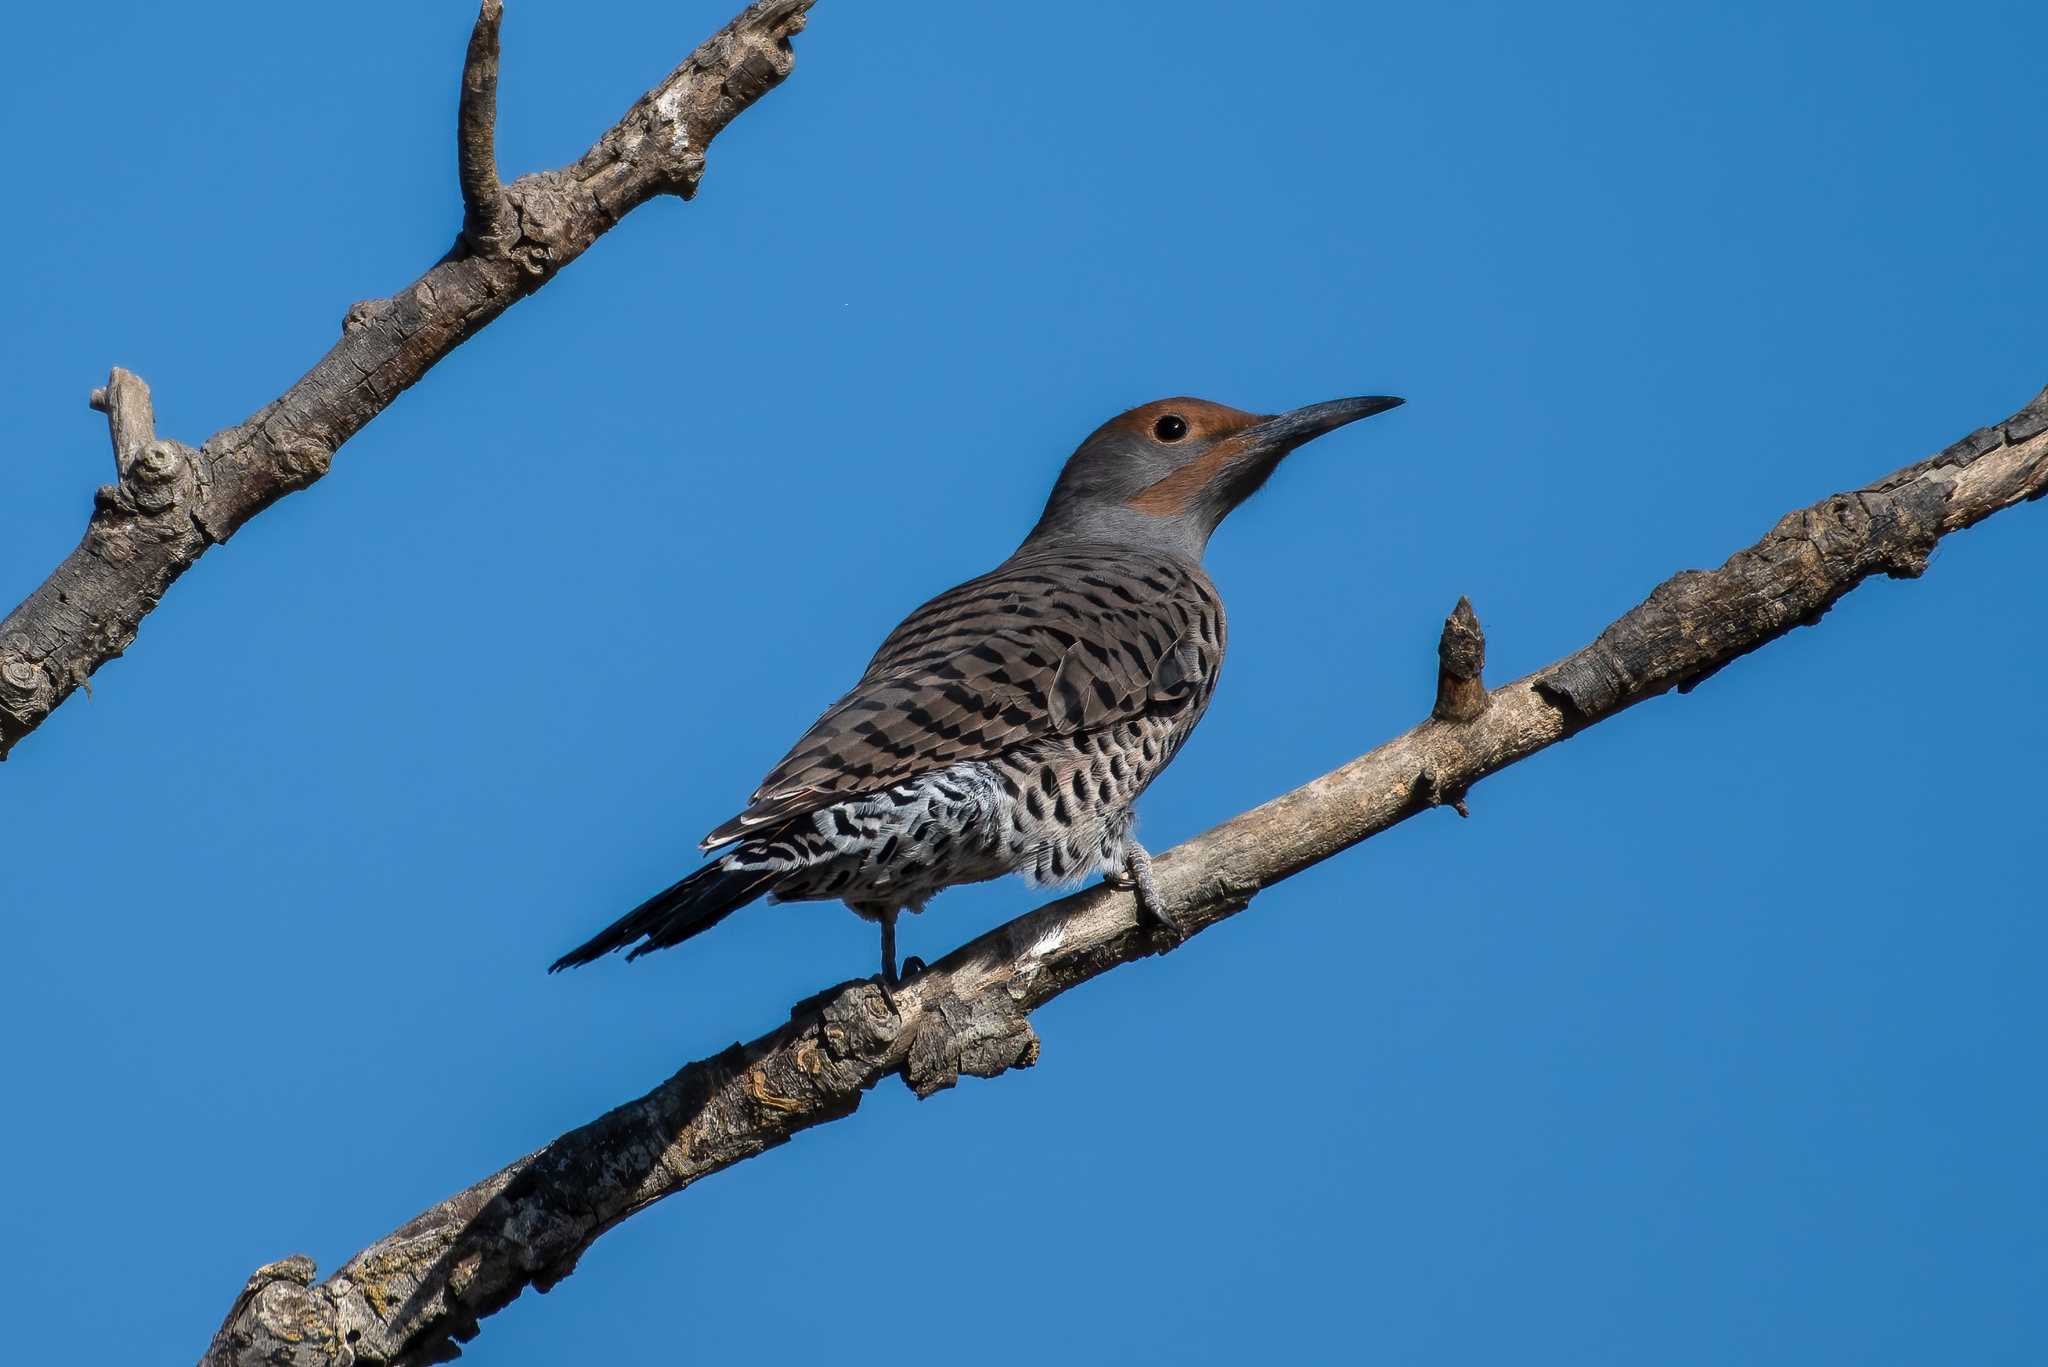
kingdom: Animalia
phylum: Chordata
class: Aves
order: Piciformes
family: Picidae
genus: Colaptes
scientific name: Colaptes auratus
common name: Northern flicker
